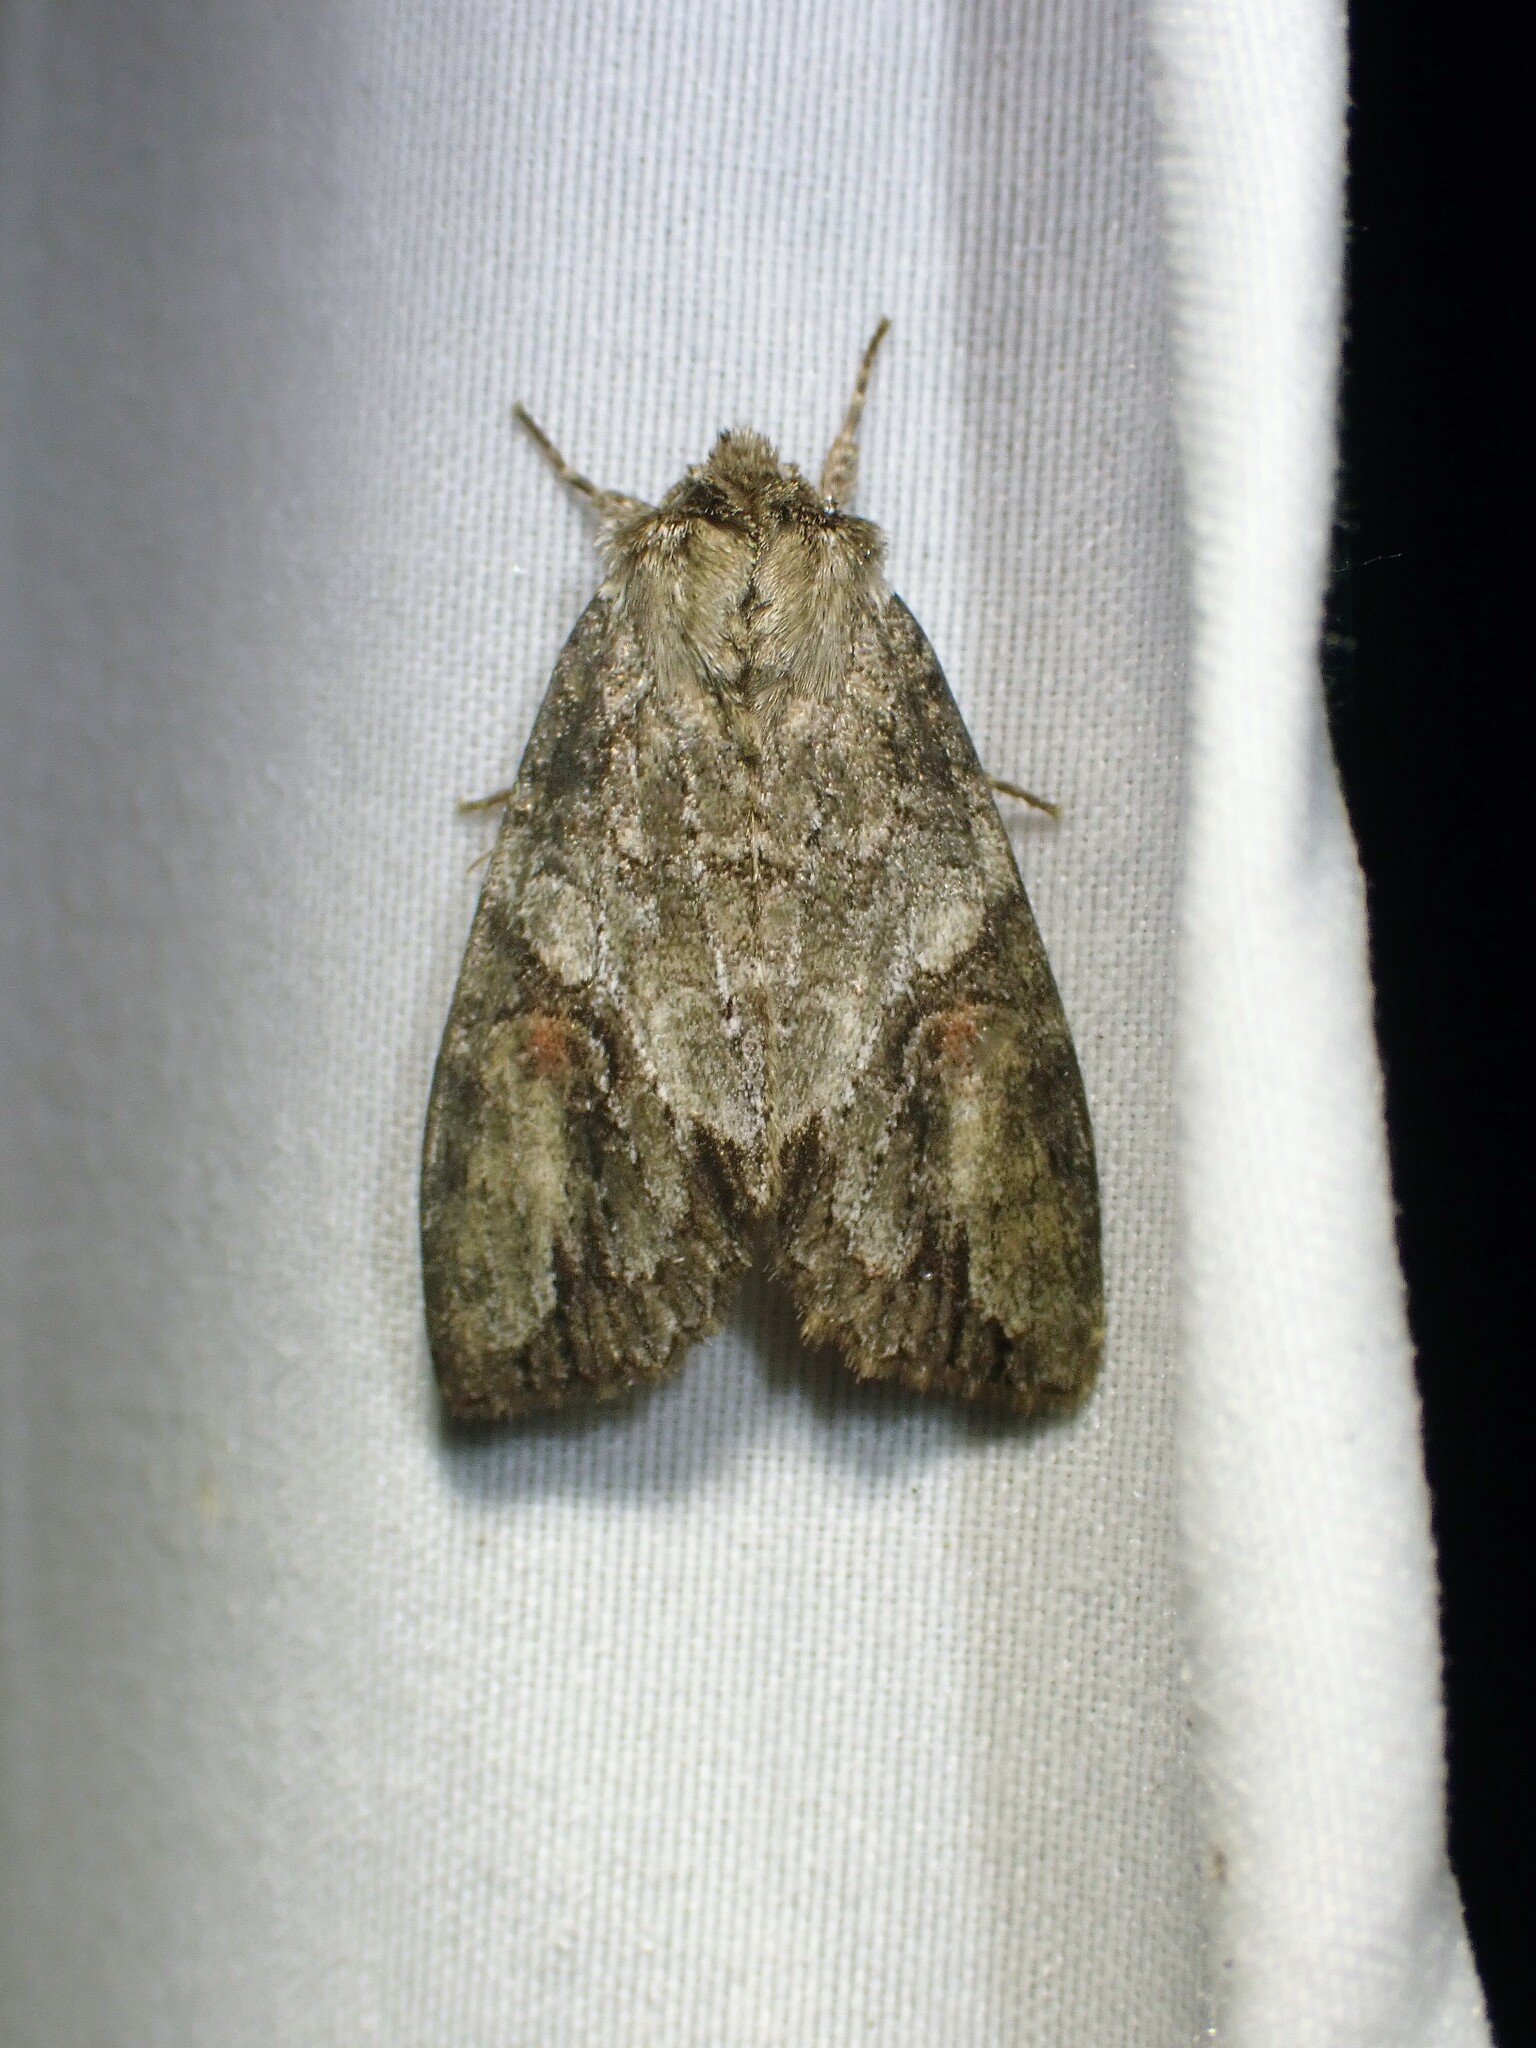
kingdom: Animalia
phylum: Arthropoda
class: Insecta
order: Lepidoptera
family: Noctuidae
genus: Achatia
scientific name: Achatia latex
